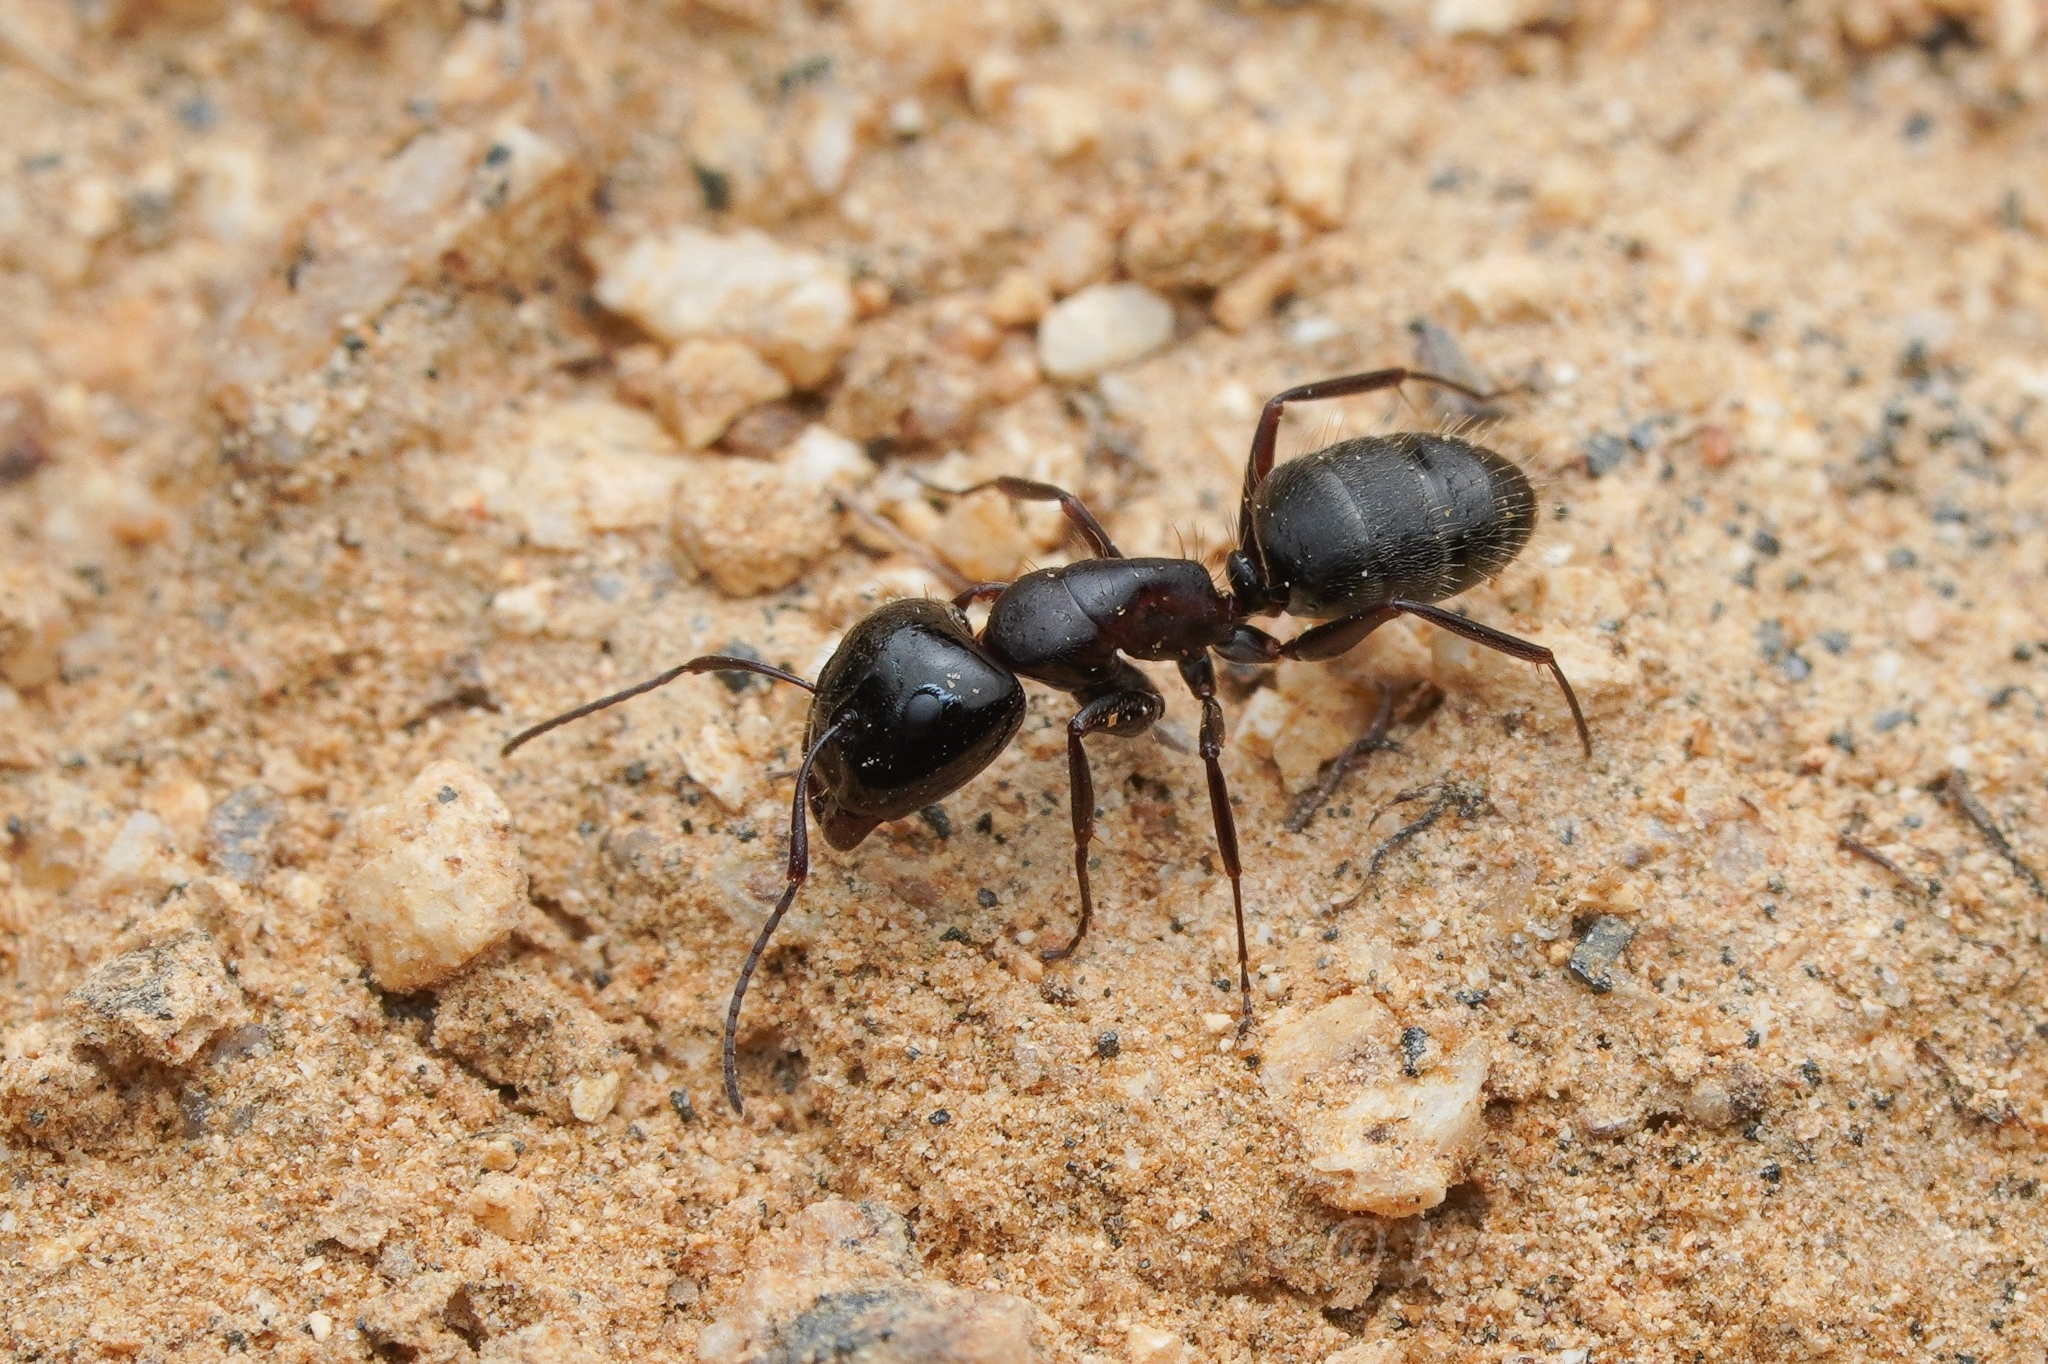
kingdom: Animalia
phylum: Arthropoda
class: Insecta
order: Hymenoptera
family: Formicidae
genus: Camponotus
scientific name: Camponotus anthrax
